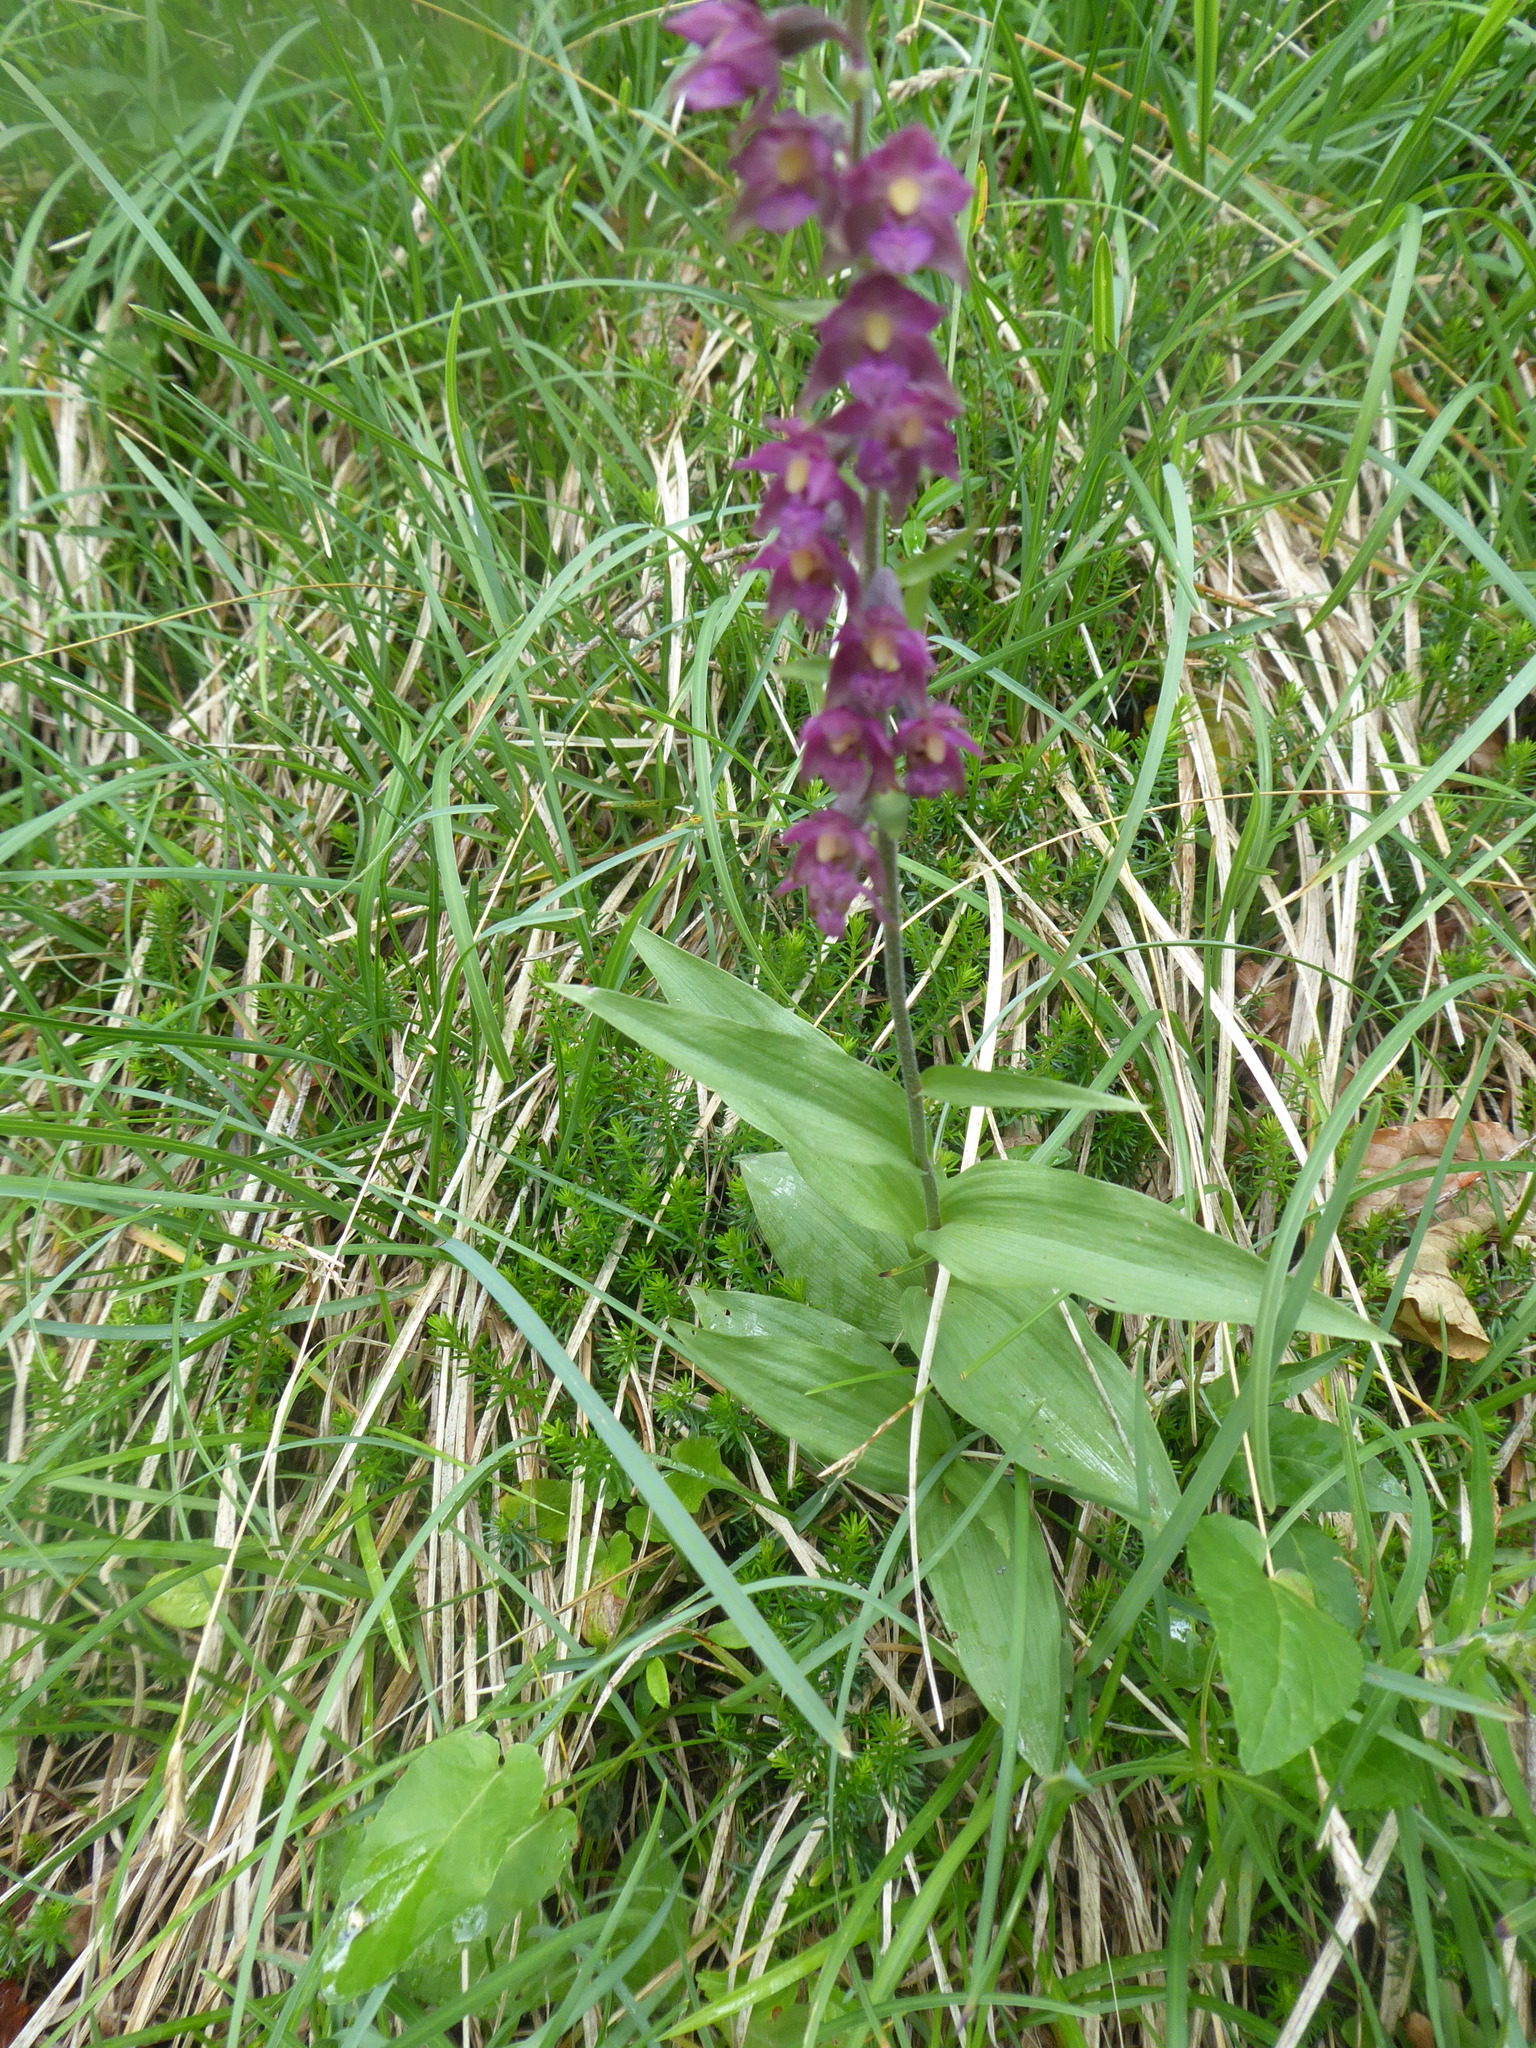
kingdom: Plantae
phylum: Tracheophyta
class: Liliopsida
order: Asparagales
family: Orchidaceae
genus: Epipactis
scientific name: Epipactis atrorubens
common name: Dark-red helleborine
